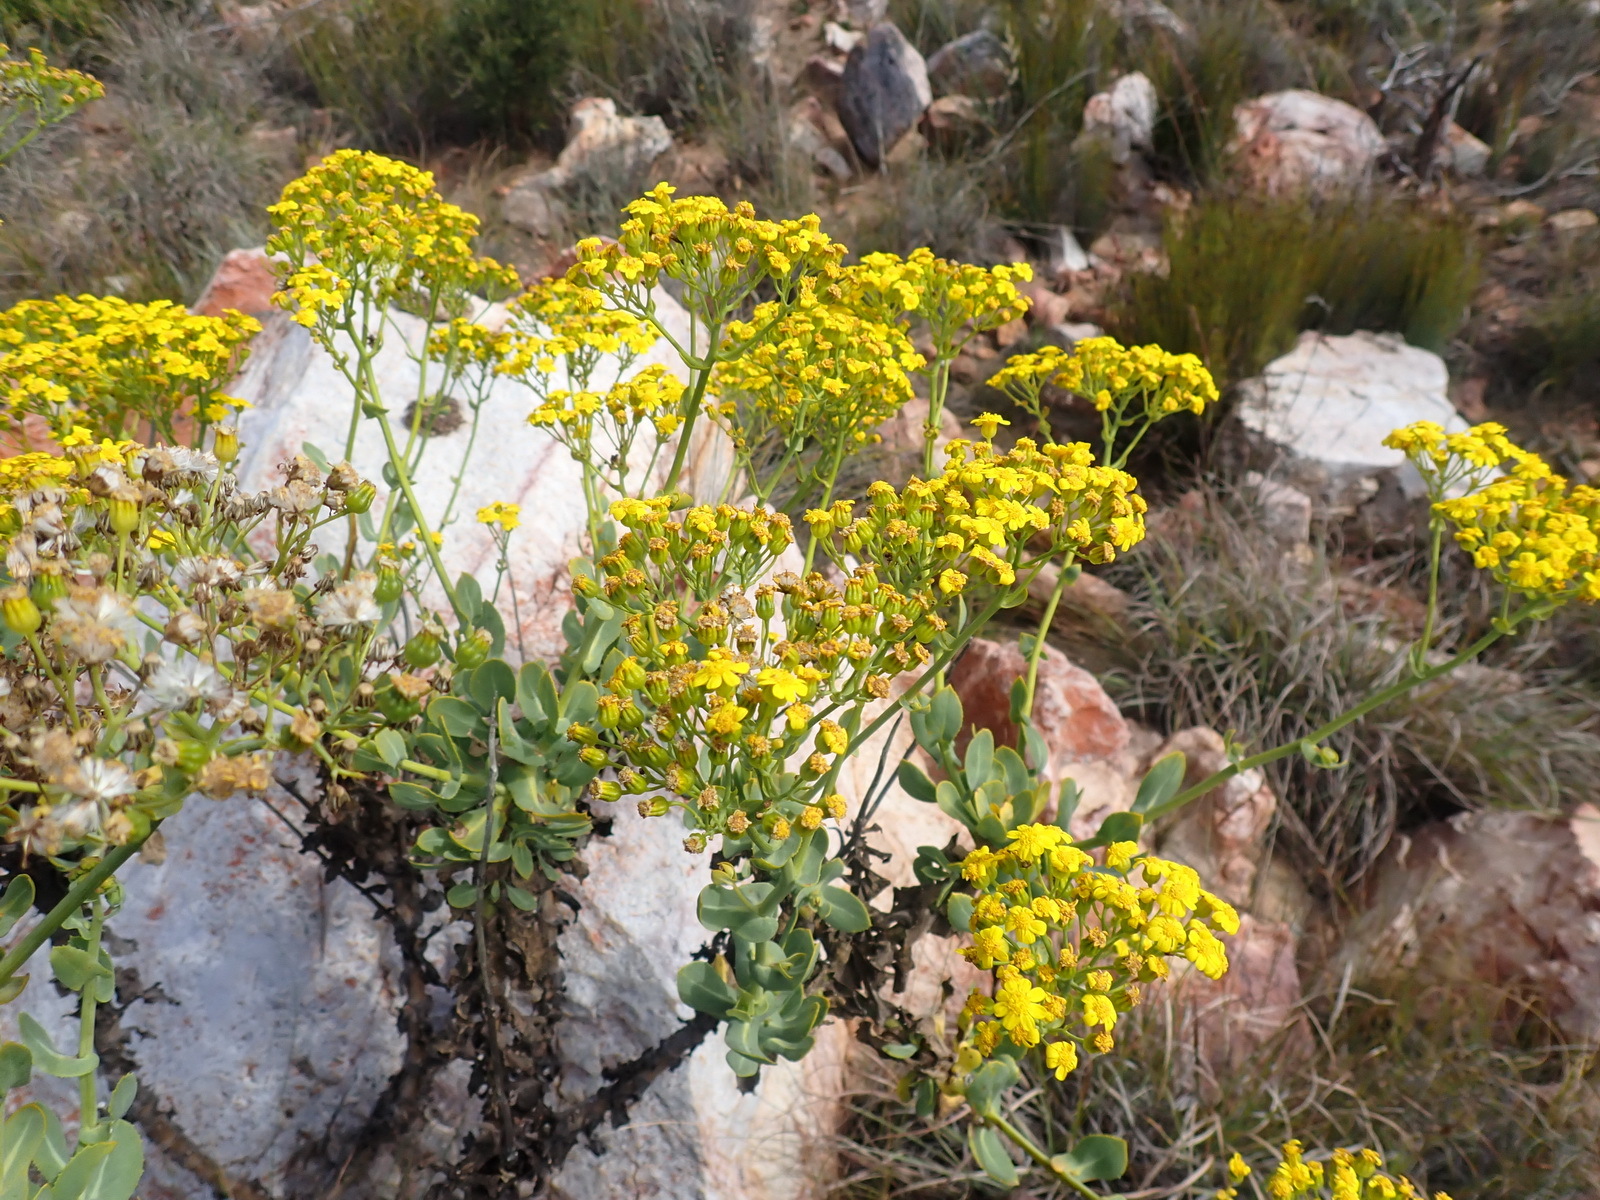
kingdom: Plantae
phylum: Tracheophyta
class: Magnoliopsida
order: Asterales
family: Asteraceae
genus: Othonna
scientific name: Othonna parviflora
